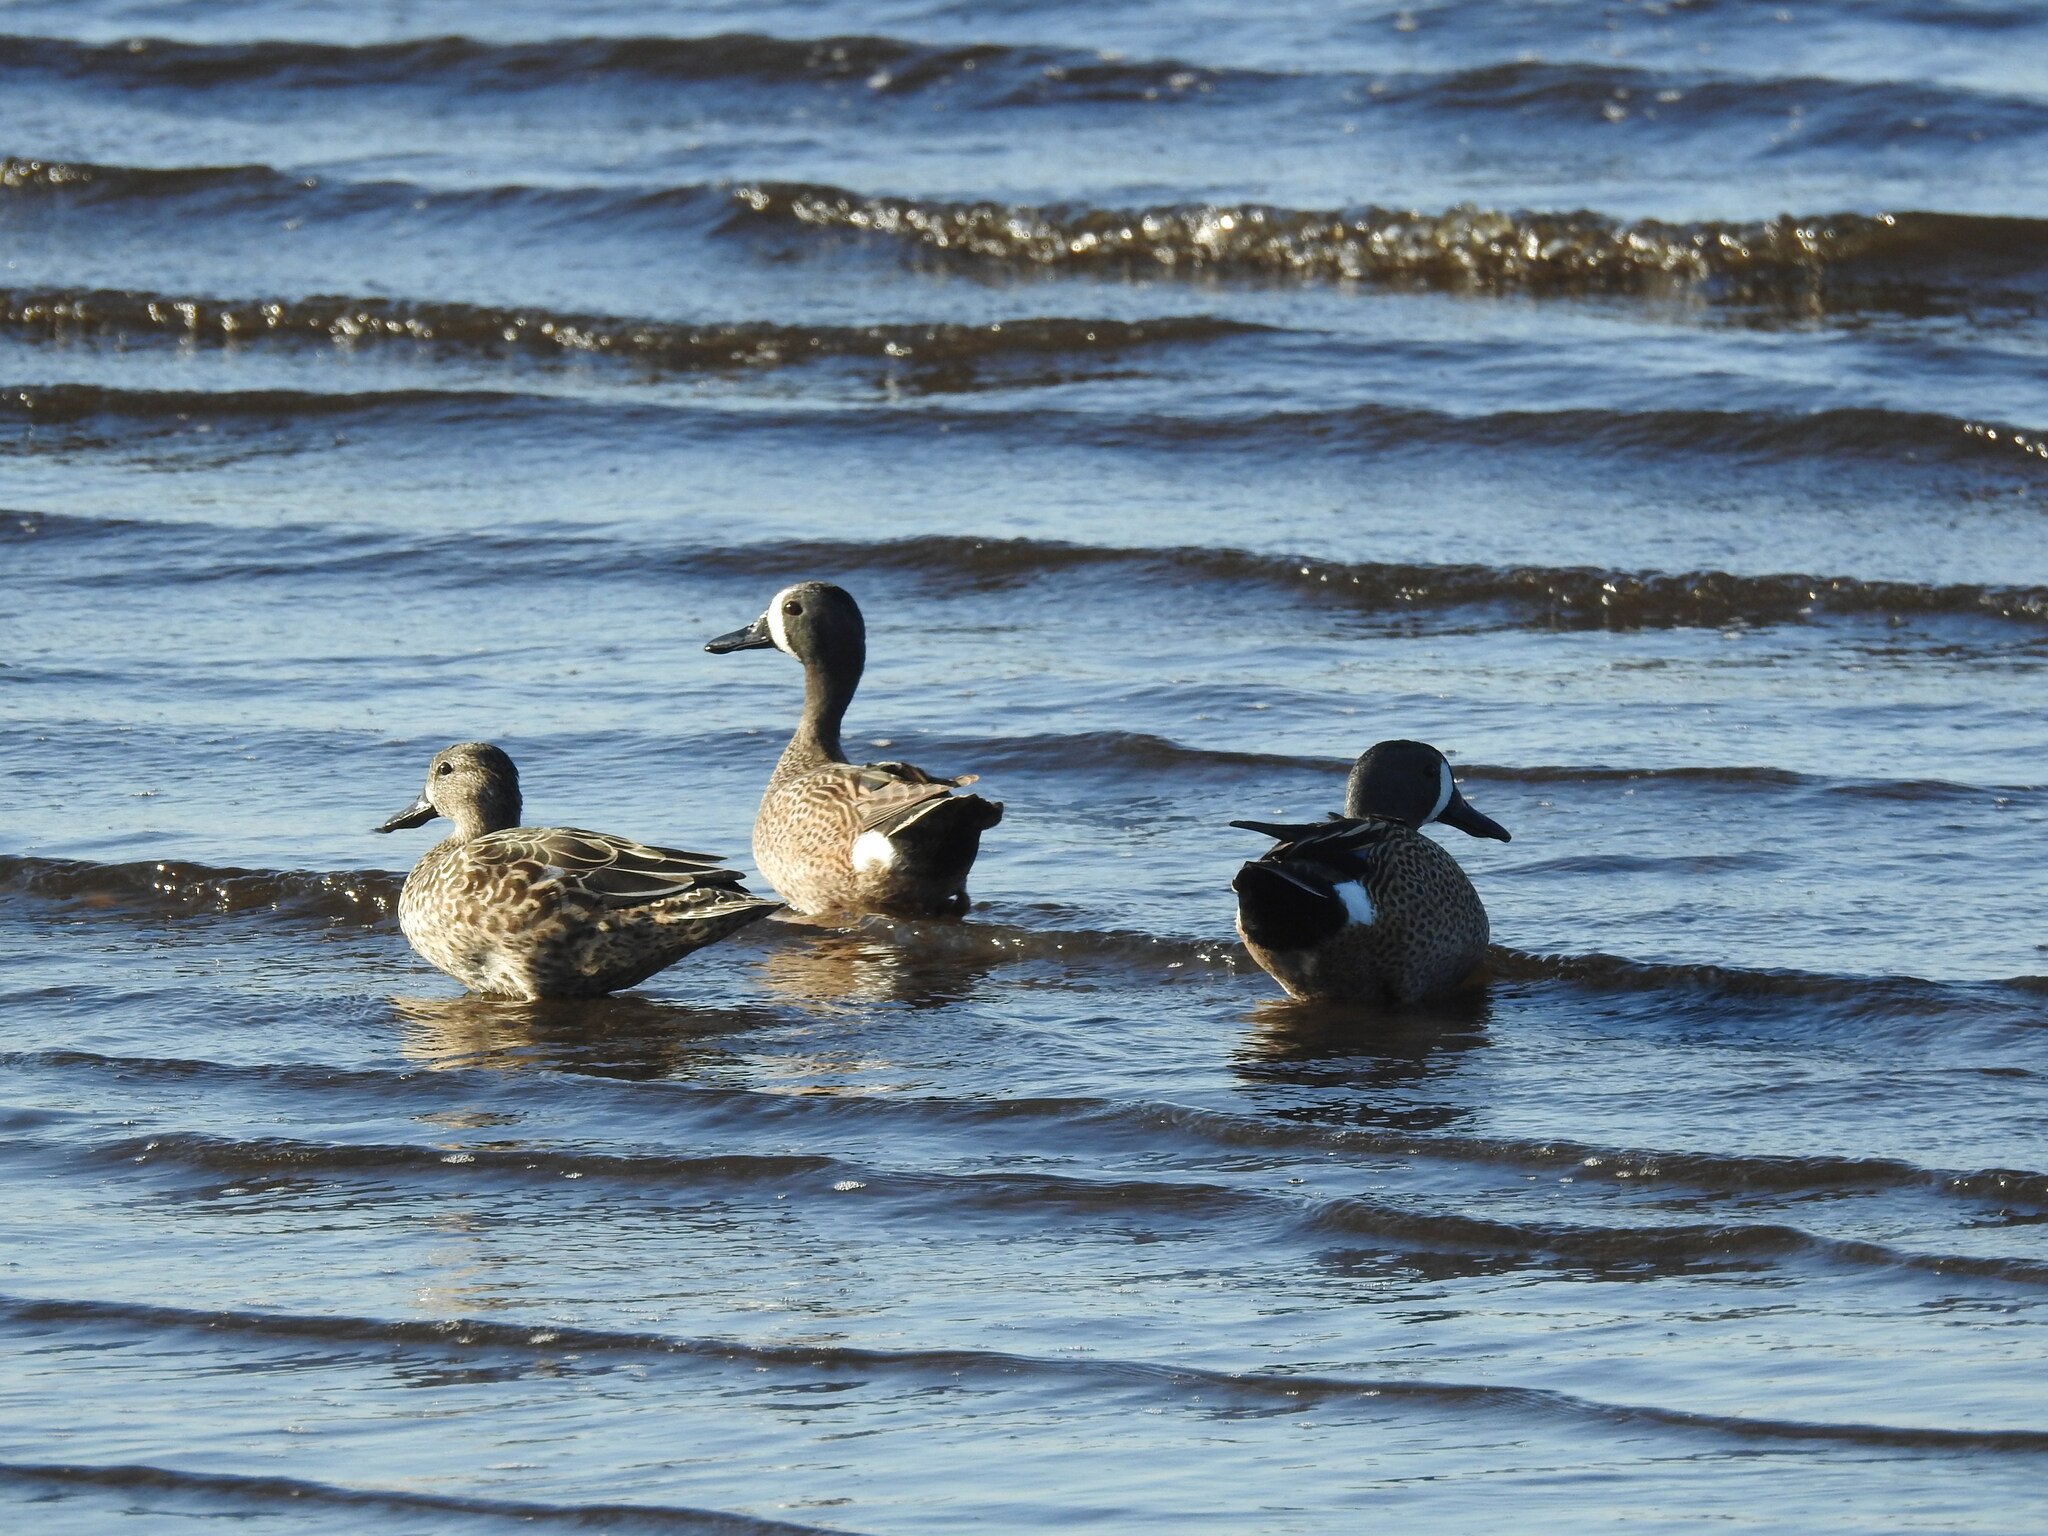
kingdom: Animalia
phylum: Chordata
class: Aves
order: Anseriformes
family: Anatidae
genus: Spatula
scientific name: Spatula discors
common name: Blue-winged teal
